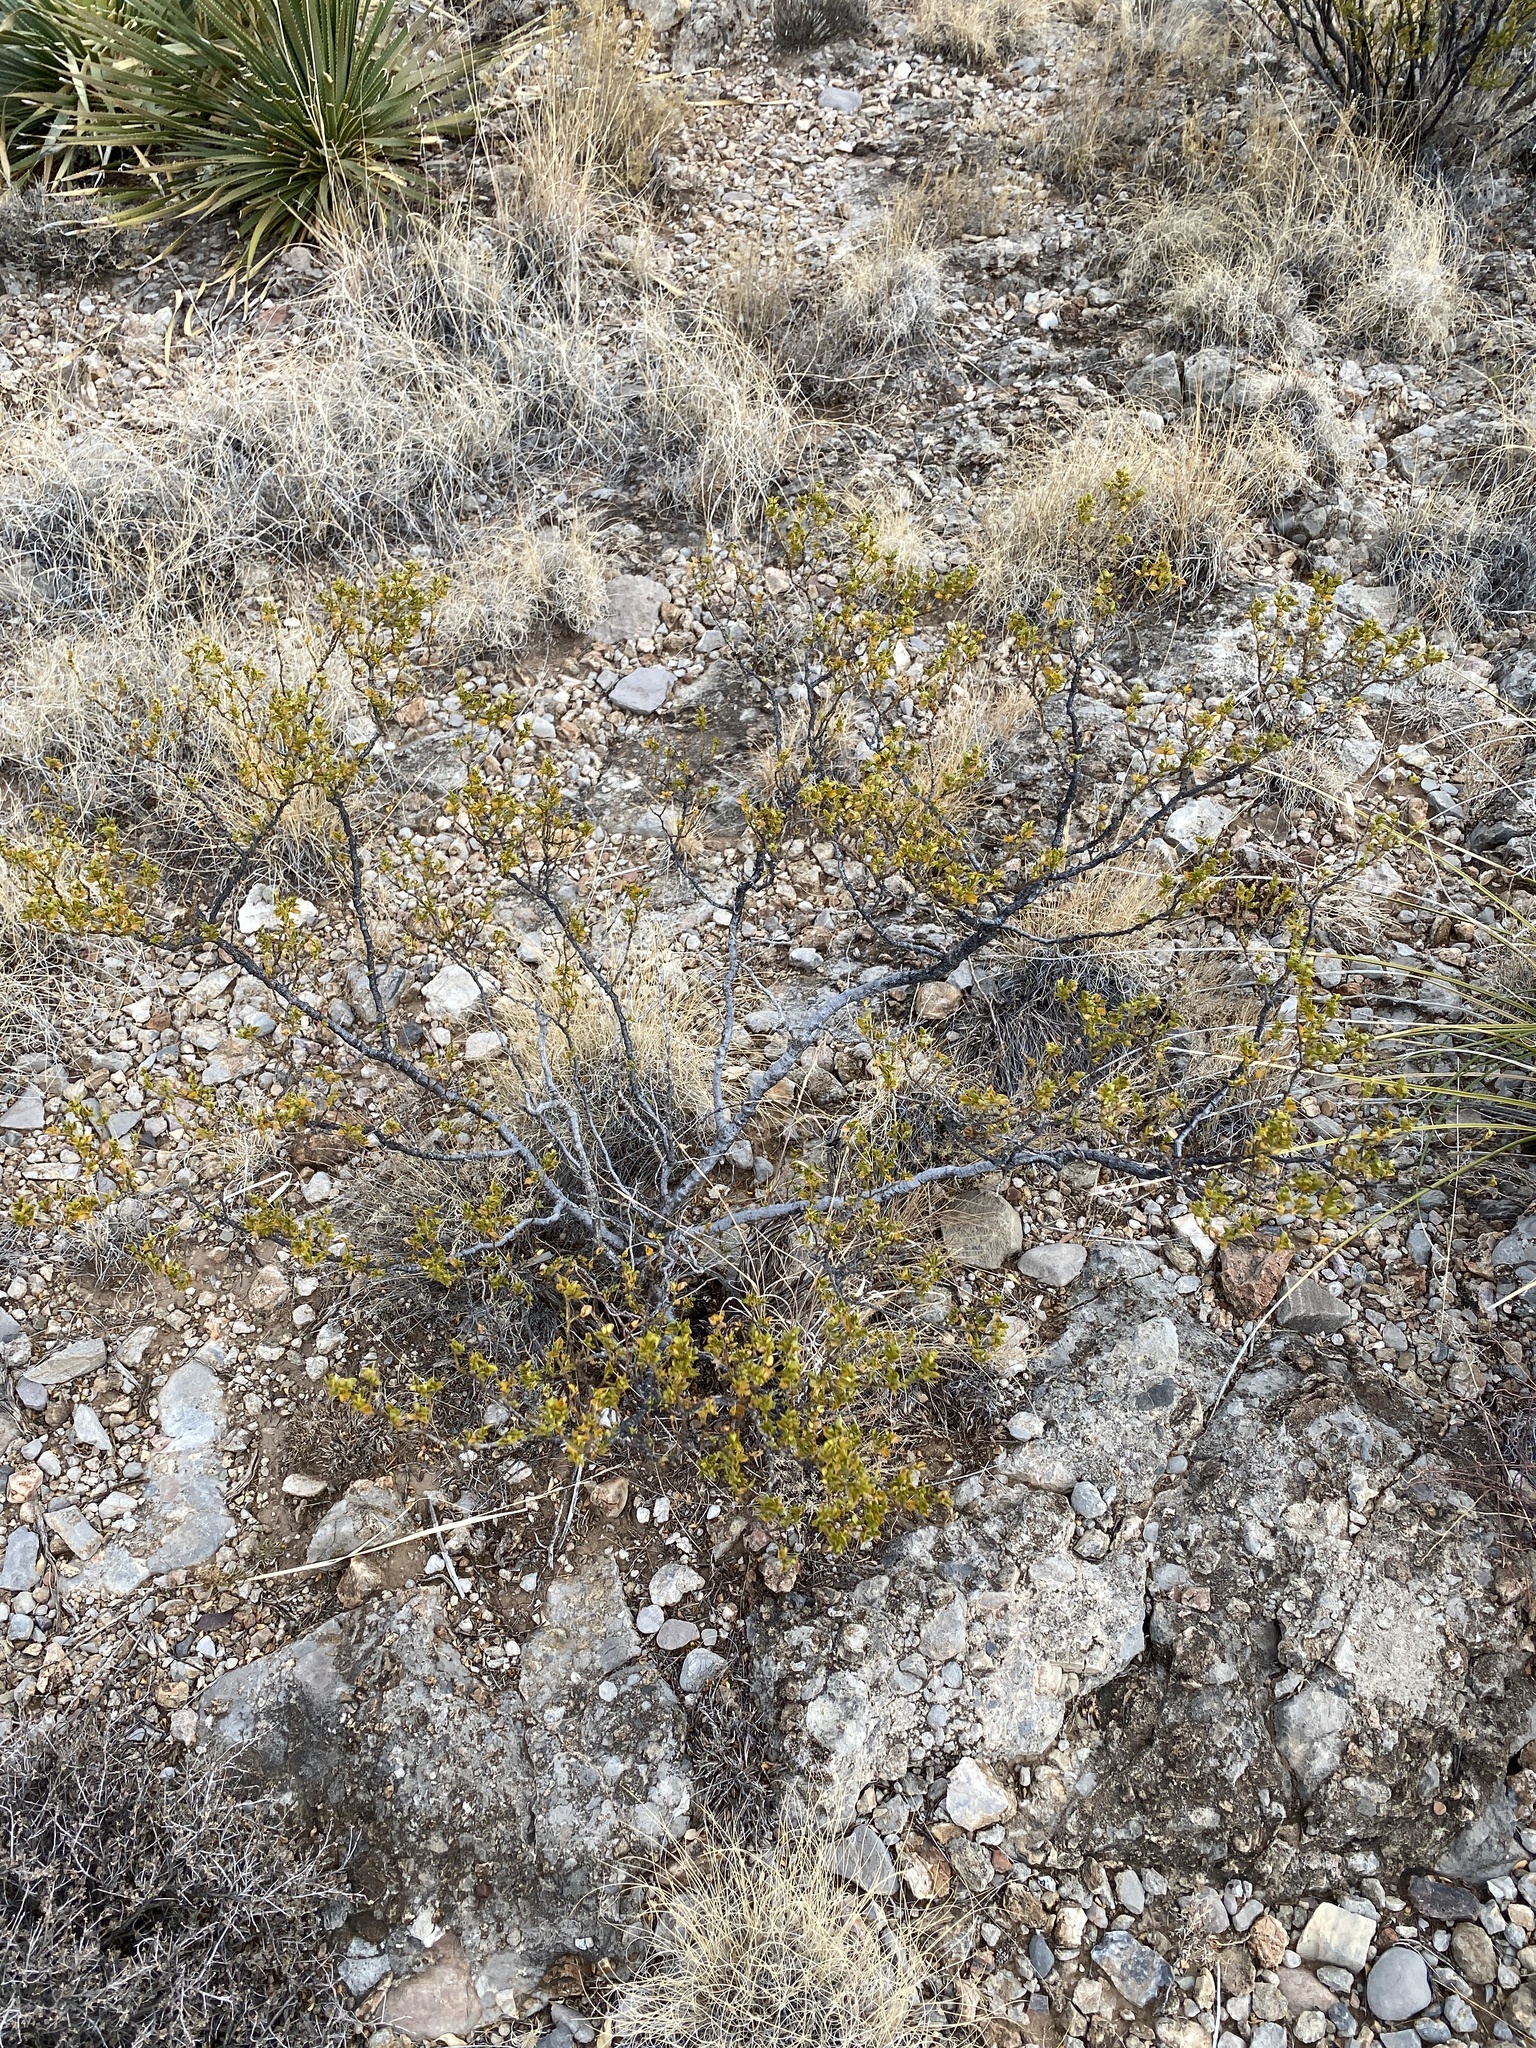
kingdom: Plantae
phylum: Tracheophyta
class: Magnoliopsida
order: Zygophyllales
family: Zygophyllaceae
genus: Larrea
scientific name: Larrea tridentata
